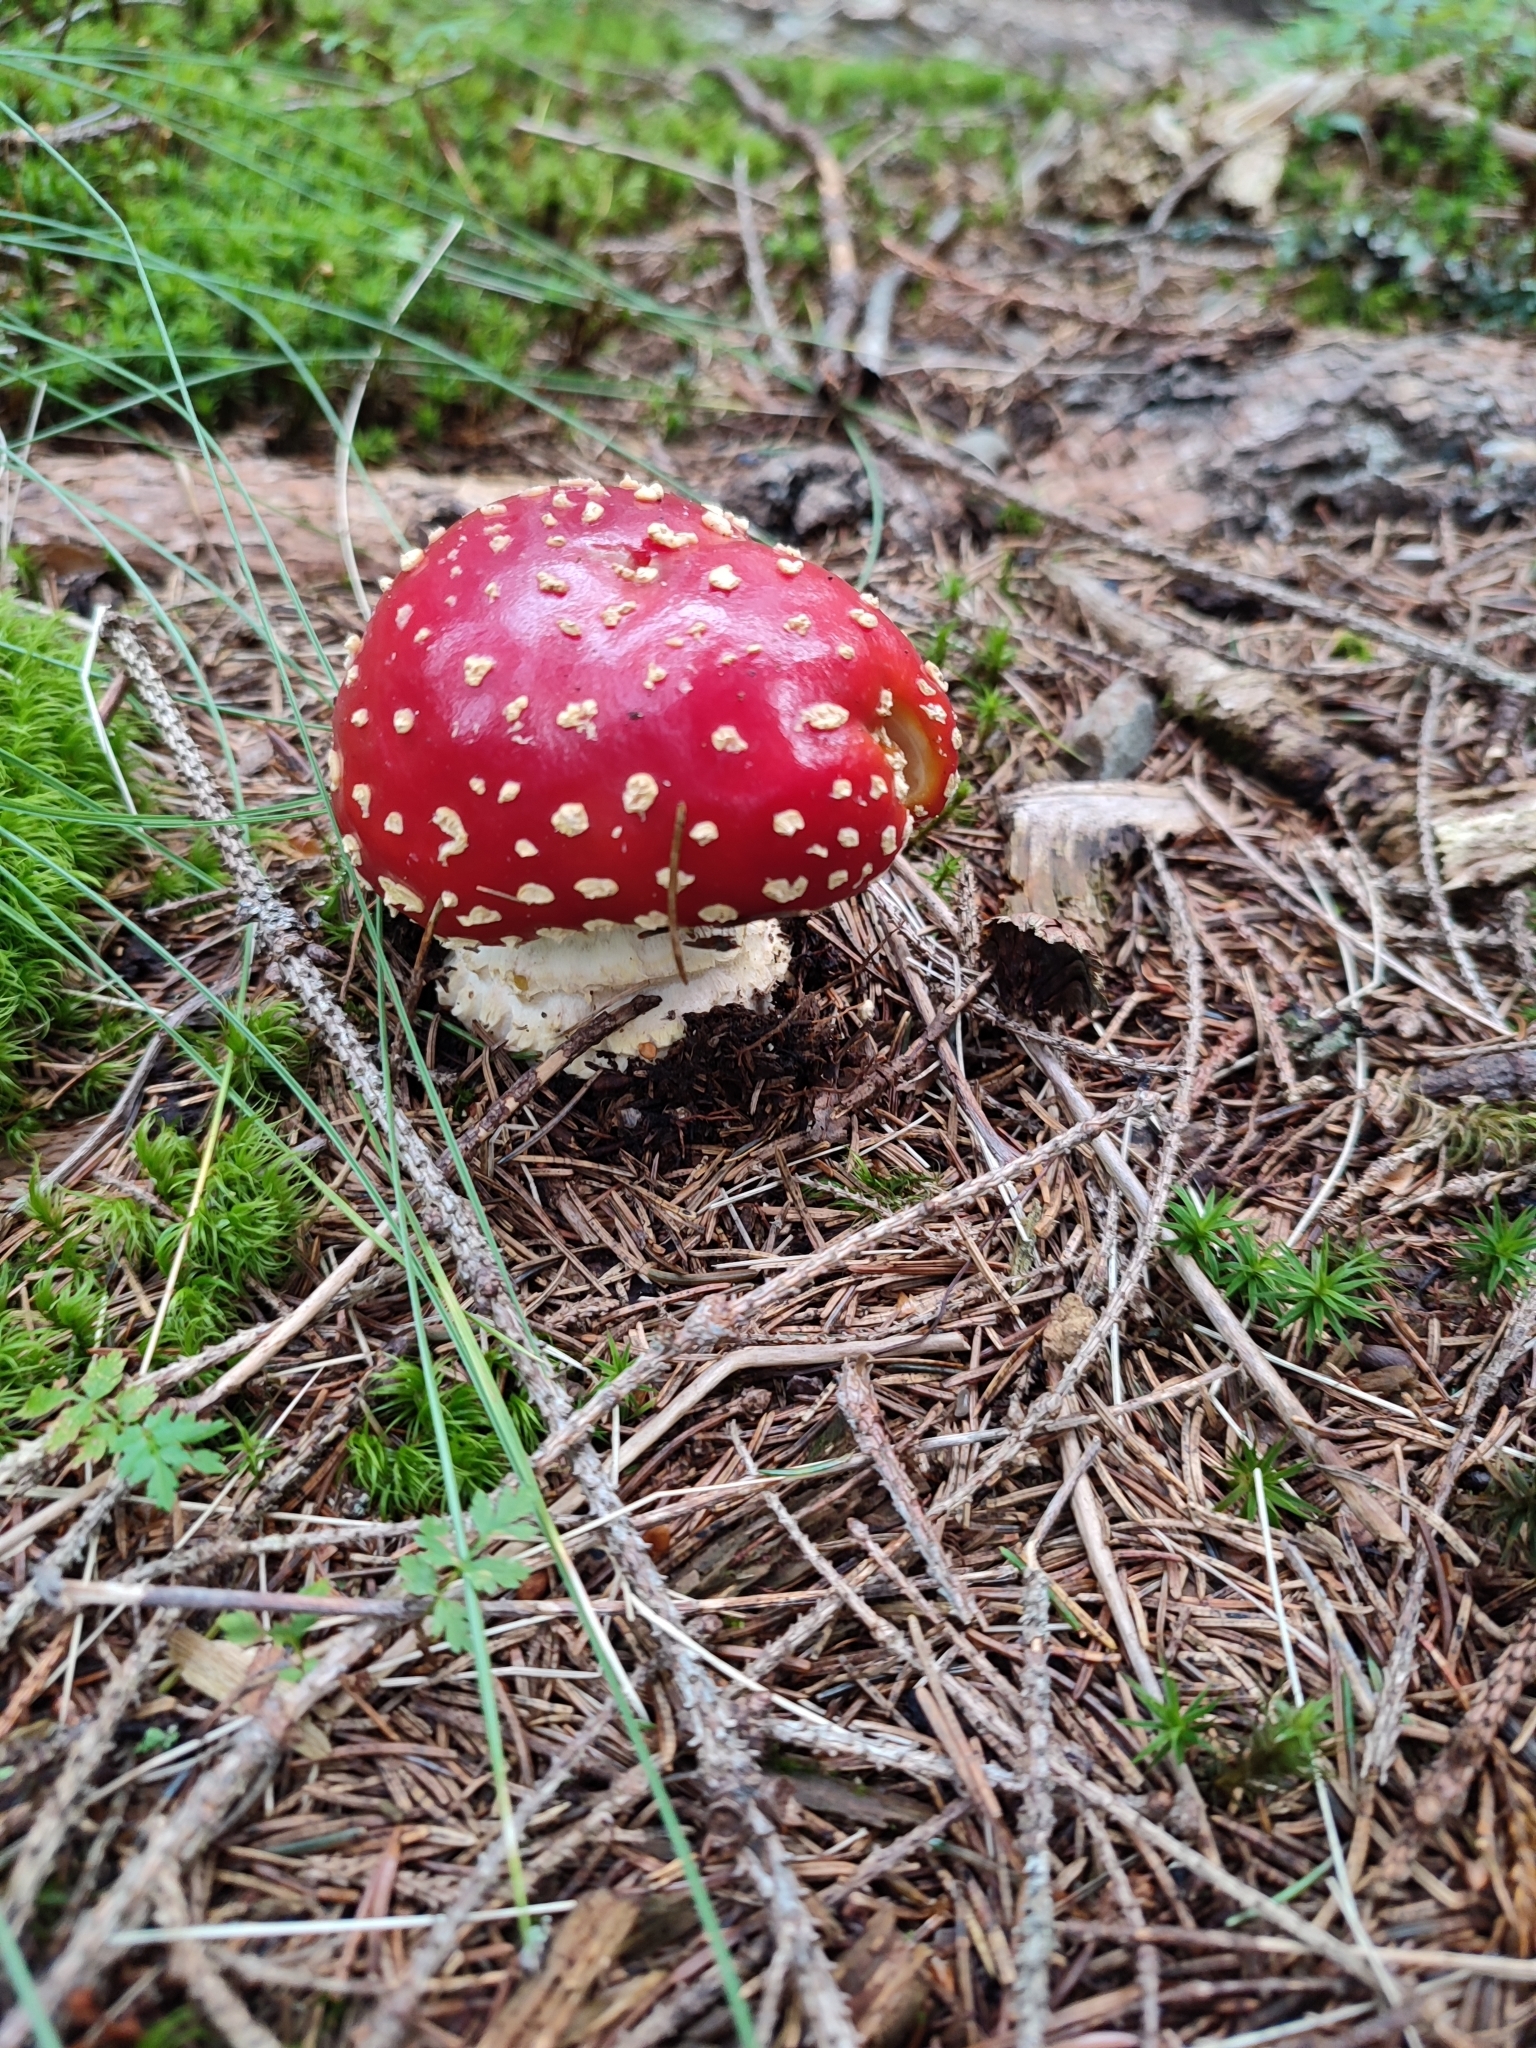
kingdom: Fungi
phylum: Basidiomycota
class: Agaricomycetes
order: Agaricales
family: Amanitaceae
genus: Amanita
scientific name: Amanita muscaria
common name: Fly agaric
